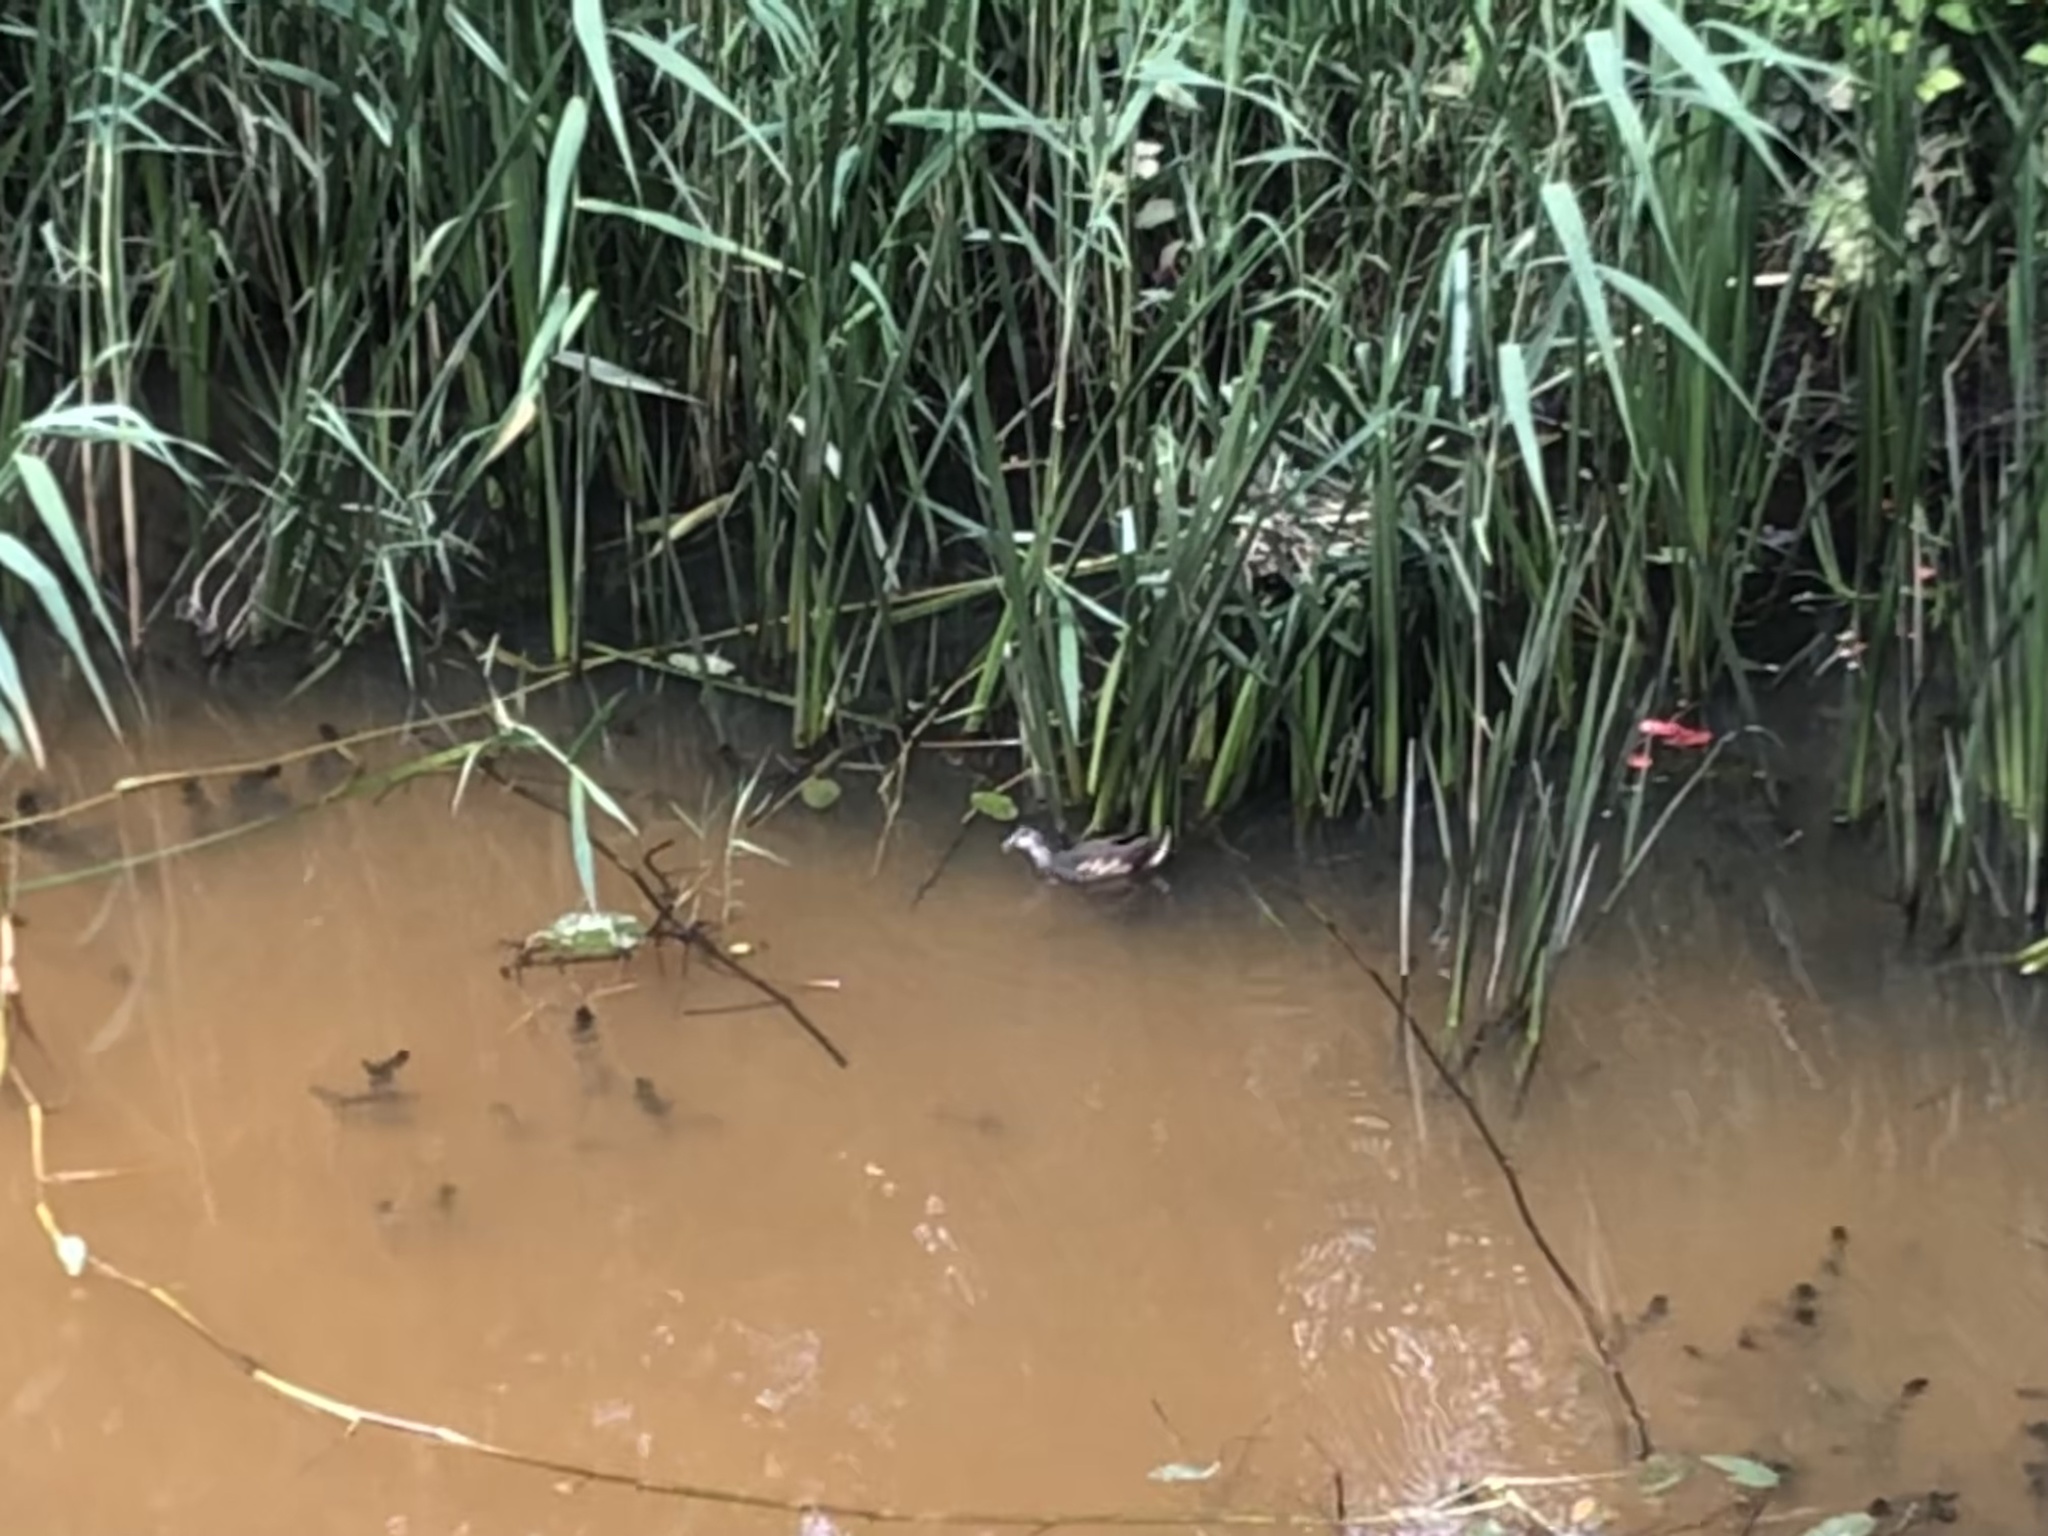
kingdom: Animalia
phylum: Chordata
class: Aves
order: Gruiformes
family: Rallidae
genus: Fulica
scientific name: Fulica atra
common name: Eurasian coot
